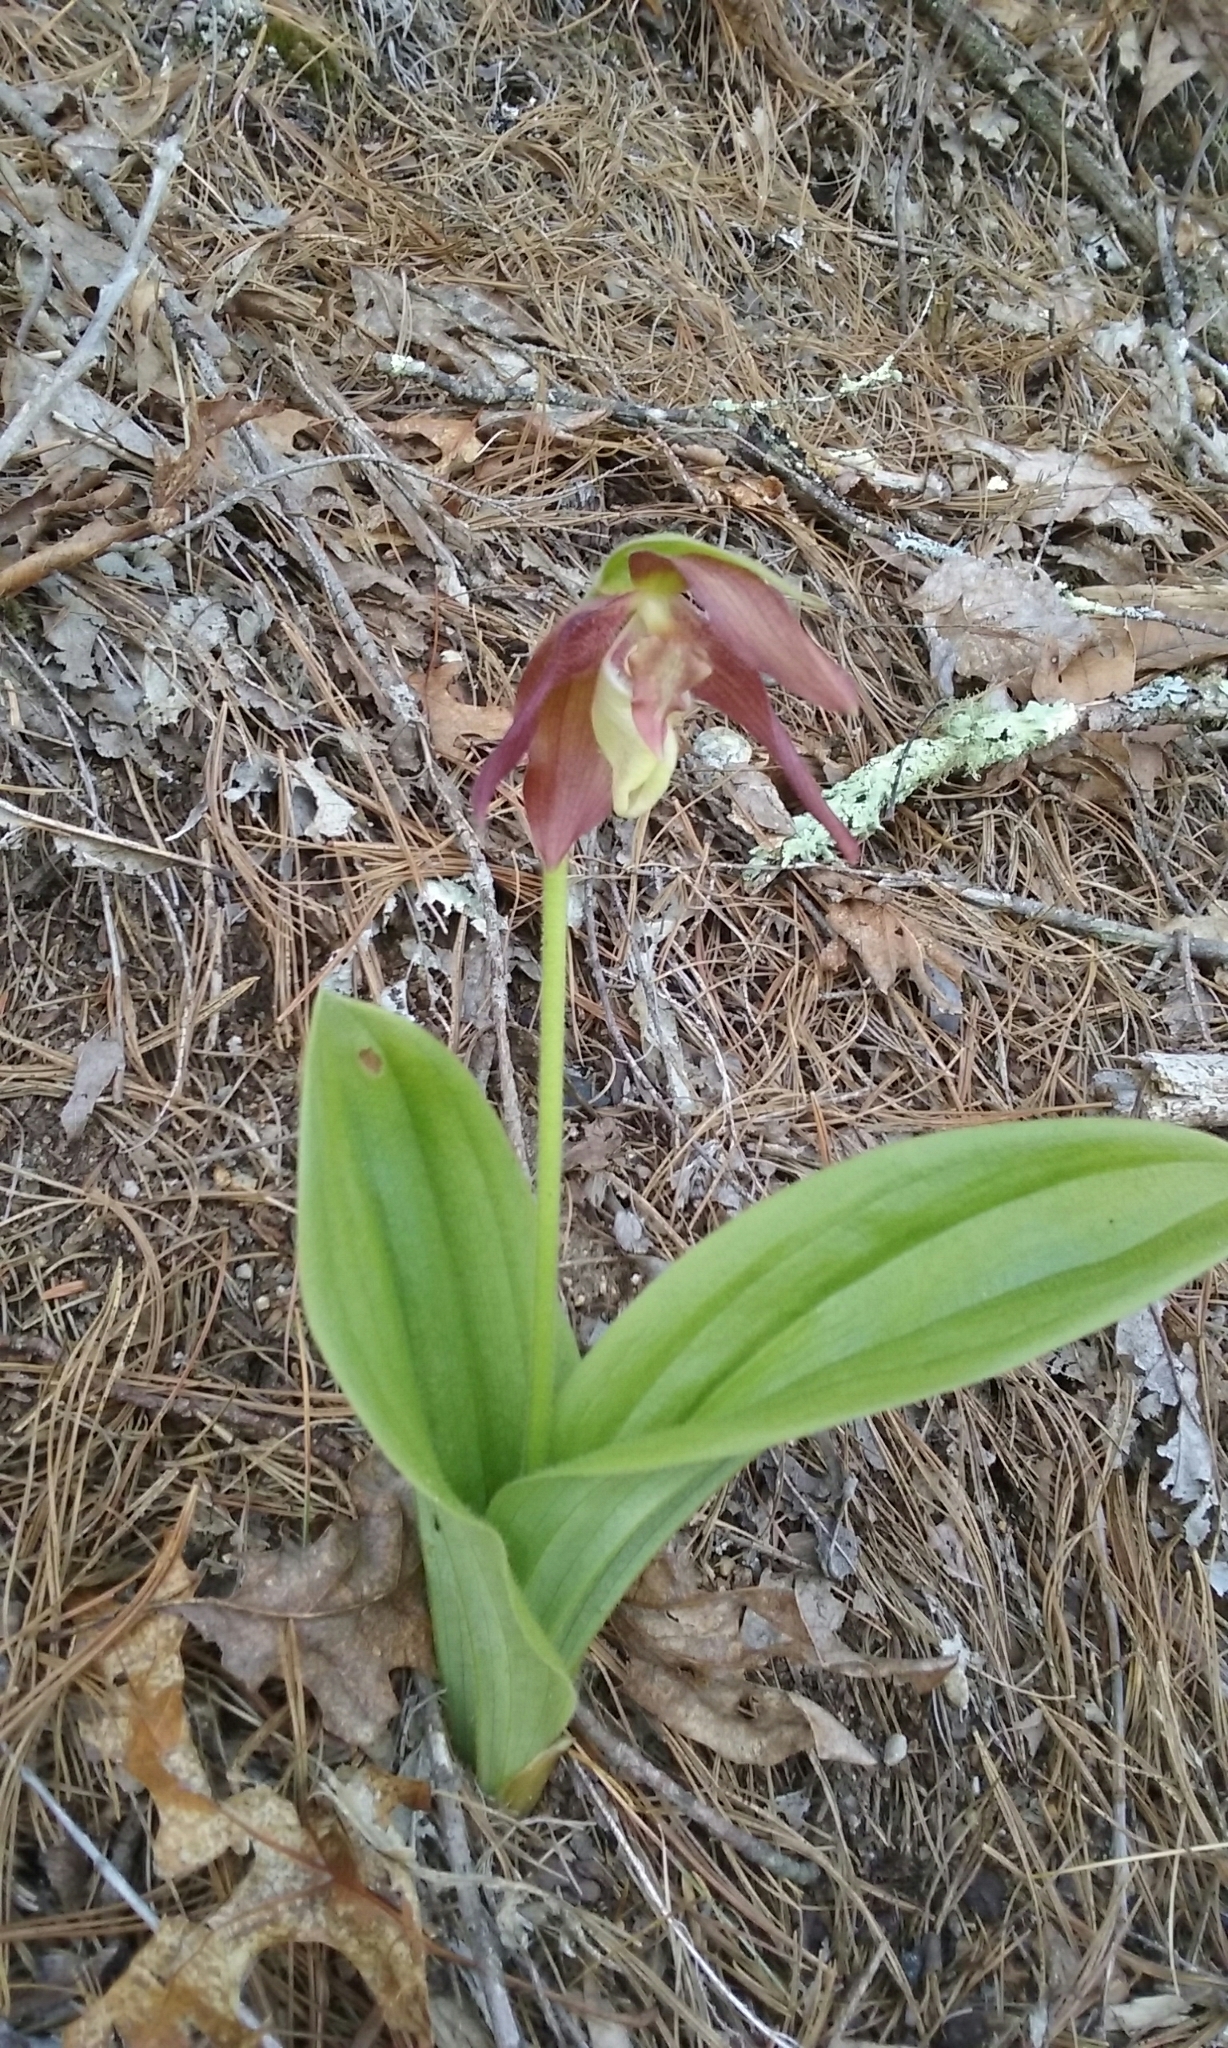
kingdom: Plantae
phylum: Tracheophyta
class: Liliopsida
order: Asparagales
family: Orchidaceae
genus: Cypripedium
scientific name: Cypripedium acaule
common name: Pink lady's-slipper
